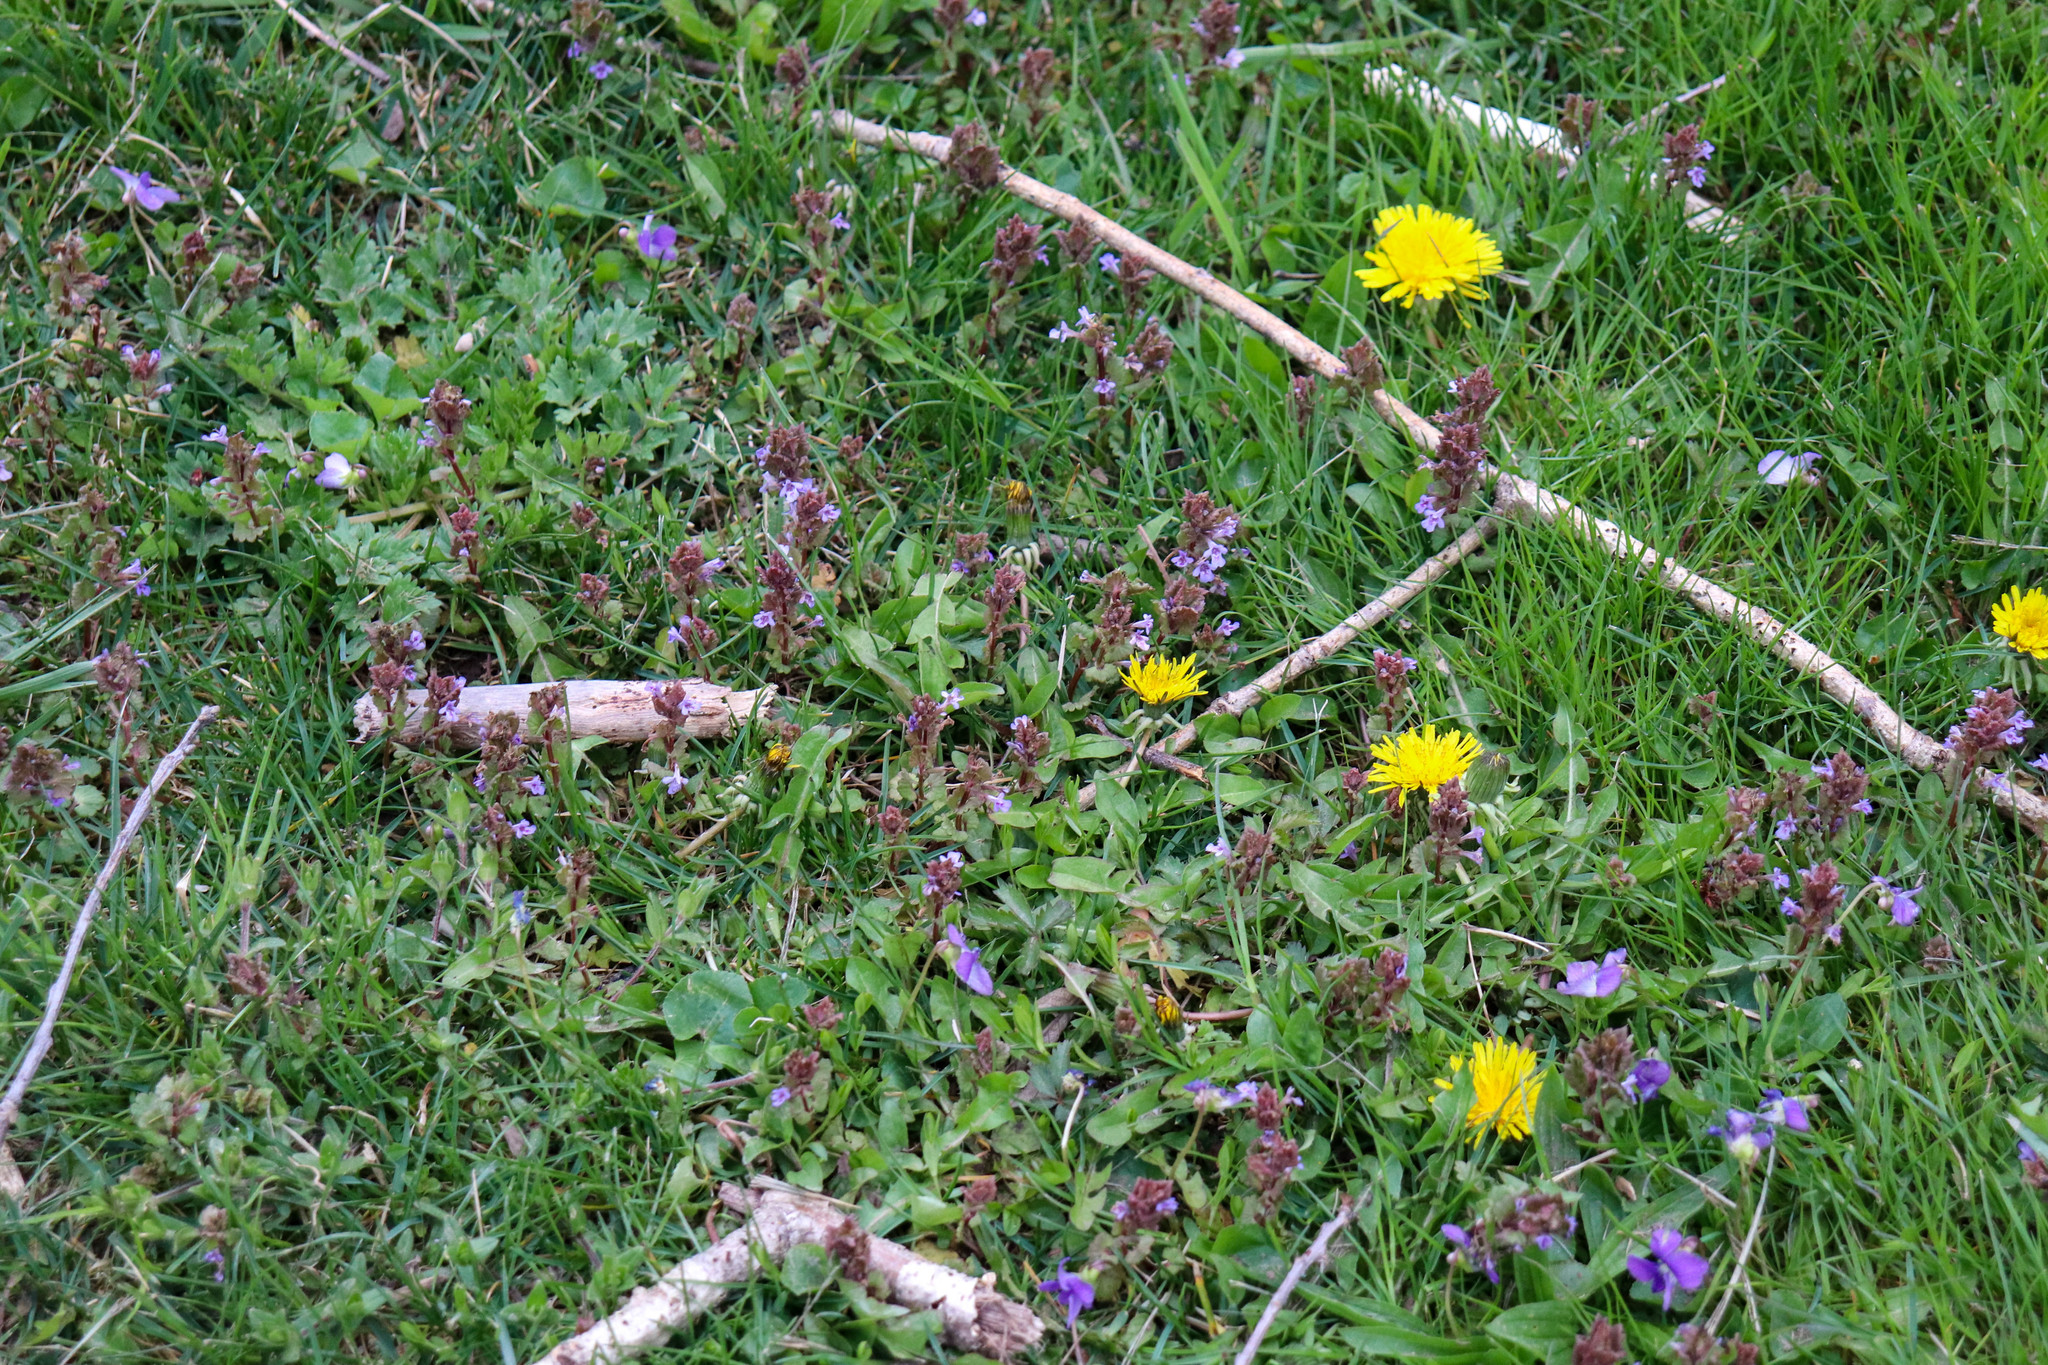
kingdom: Plantae
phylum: Tracheophyta
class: Magnoliopsida
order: Lamiales
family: Lamiaceae
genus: Glechoma
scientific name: Glechoma hederacea
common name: Ground ivy
